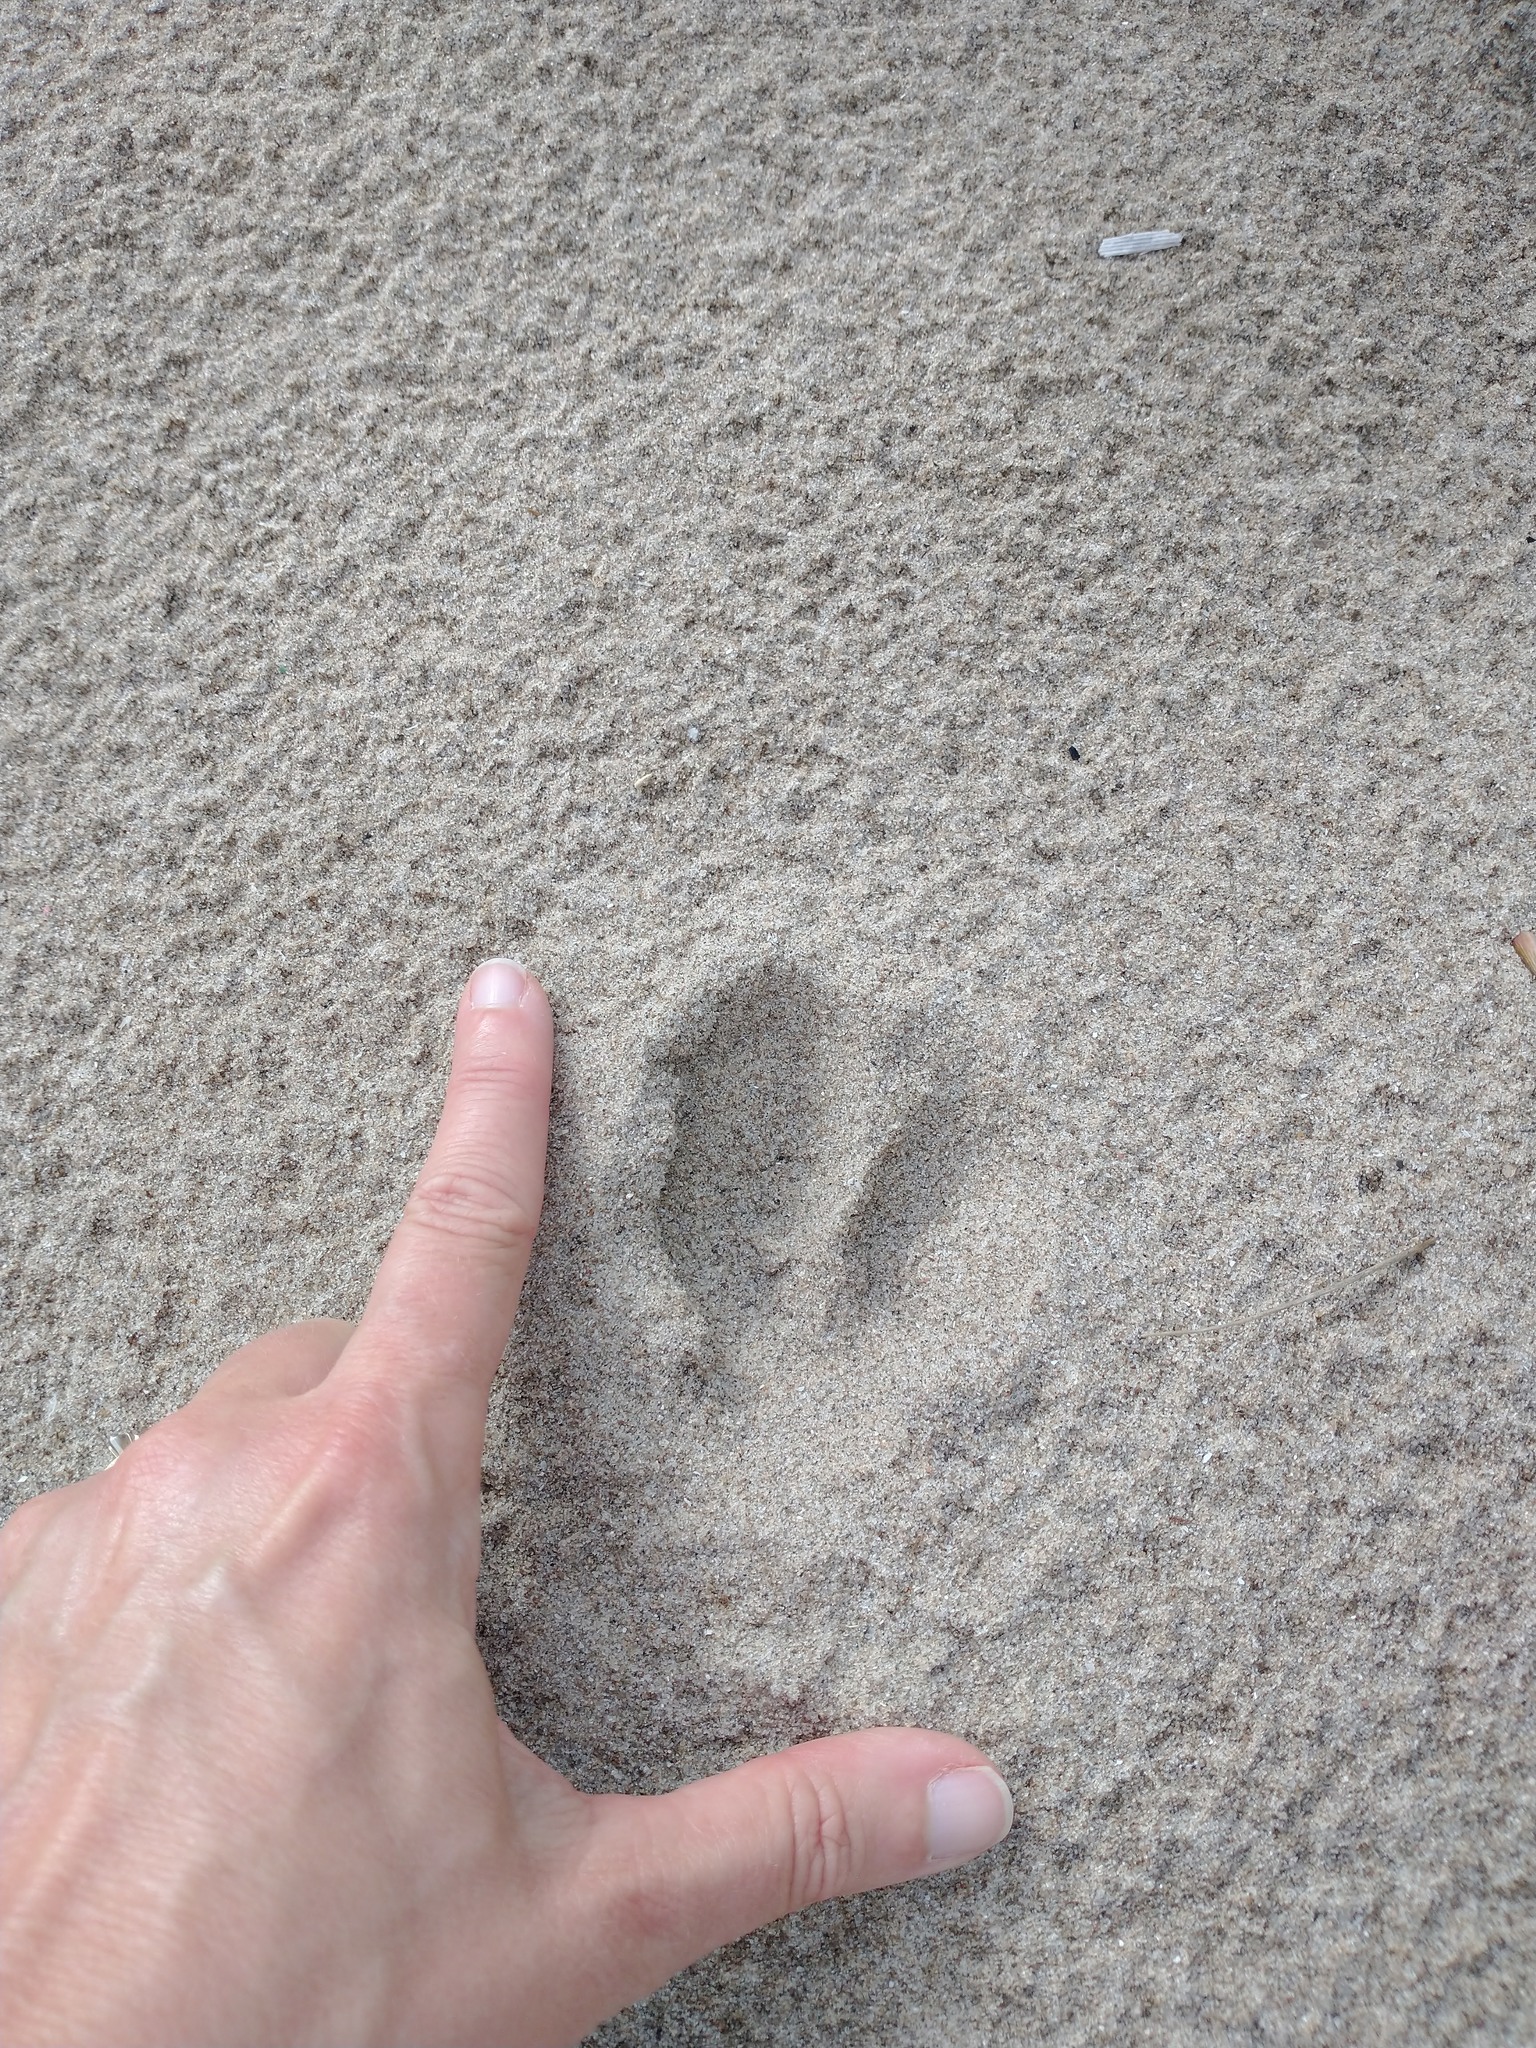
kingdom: Animalia
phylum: Chordata
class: Mammalia
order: Artiodactyla
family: Cervidae
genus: Odocoileus
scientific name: Odocoileus virginianus
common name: White-tailed deer
